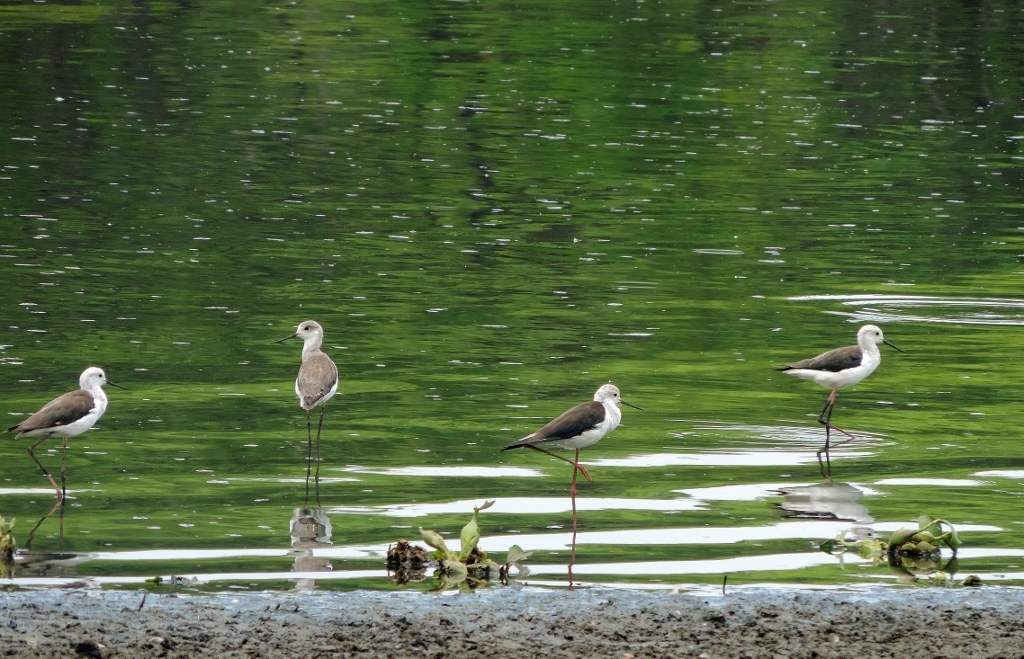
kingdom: Animalia
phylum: Chordata
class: Aves
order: Charadriiformes
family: Recurvirostridae
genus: Himantopus
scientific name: Himantopus himantopus
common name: Black-winged stilt
